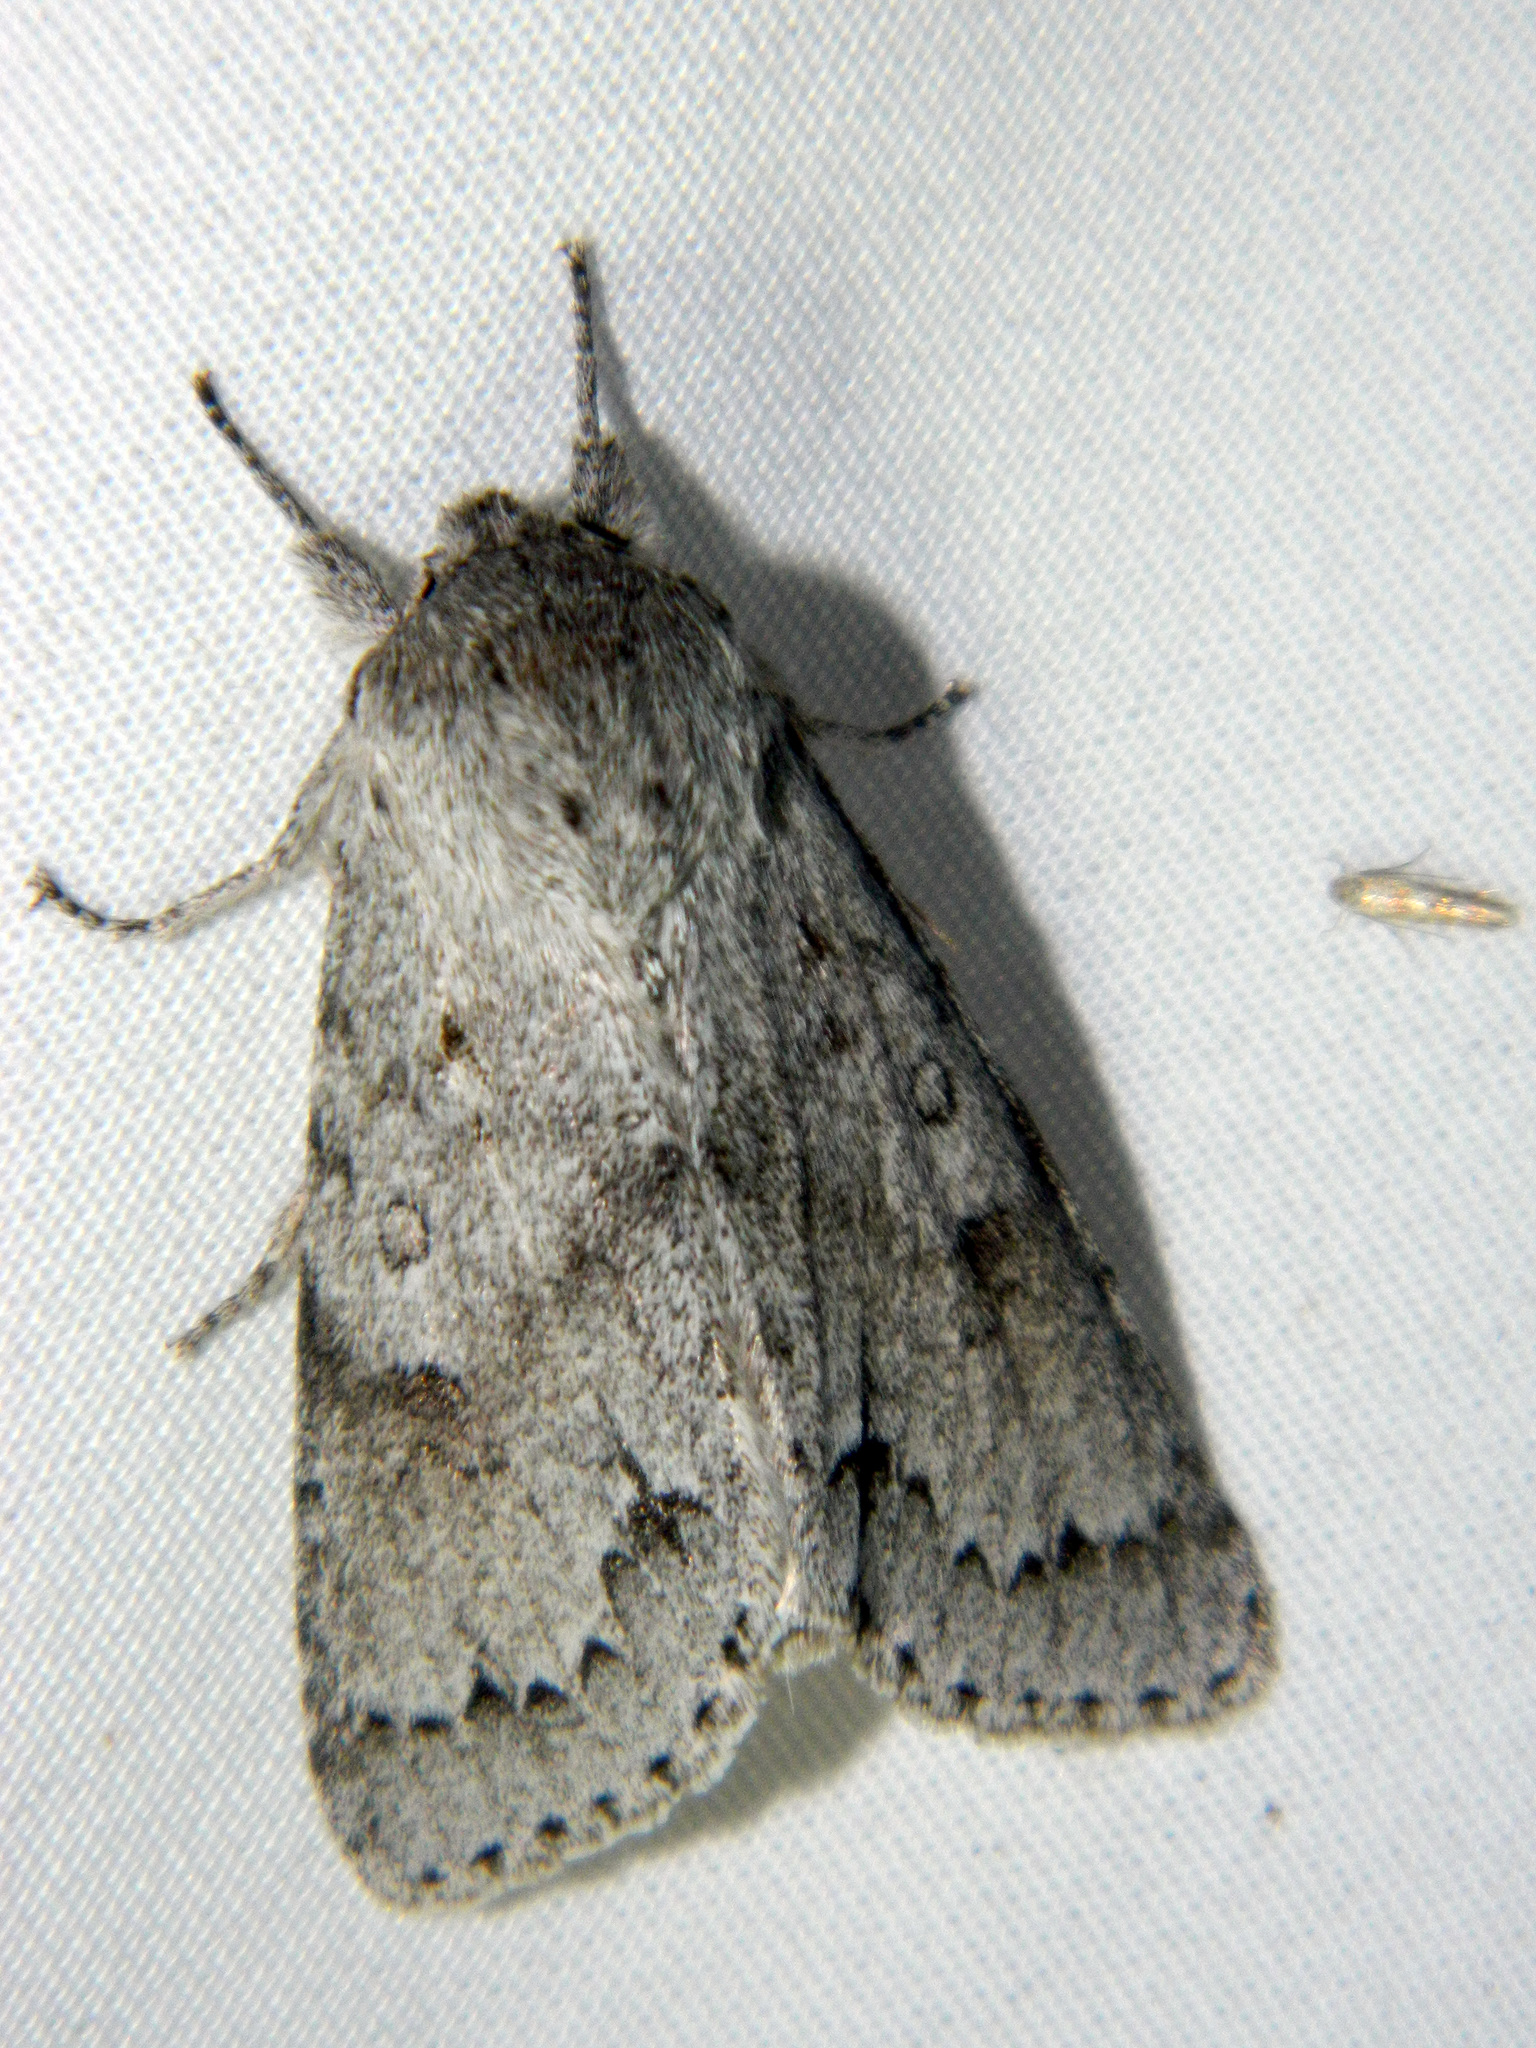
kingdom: Animalia
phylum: Arthropoda
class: Insecta
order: Lepidoptera
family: Noctuidae
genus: Acronicta
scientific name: Acronicta insita
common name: Large gray dagger
